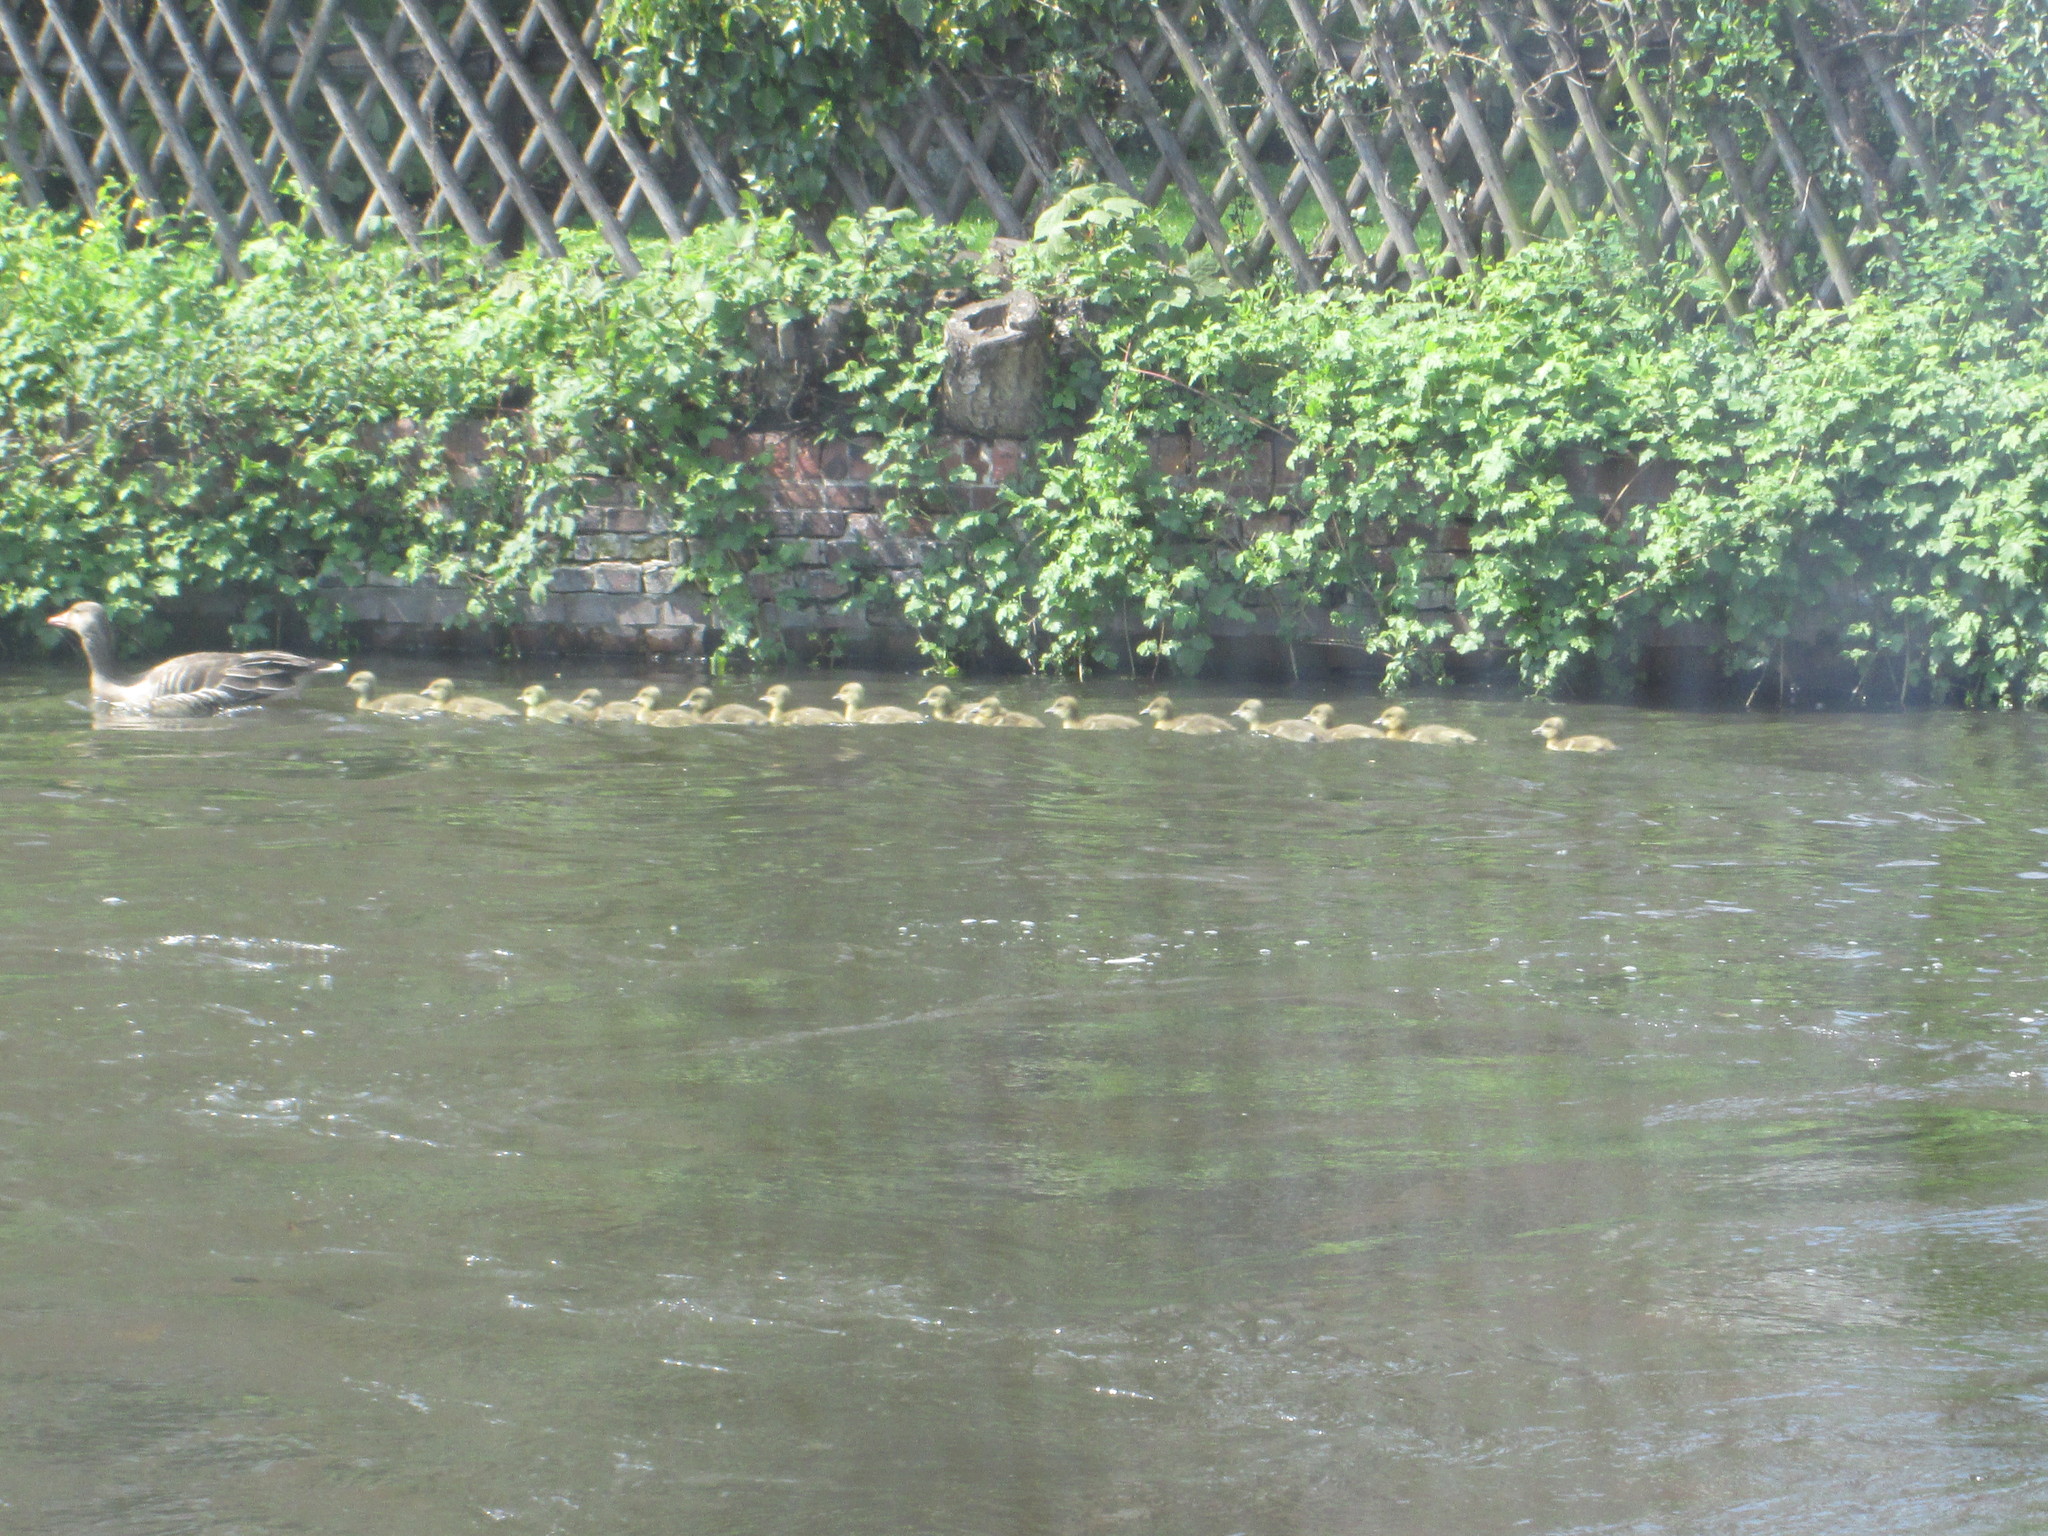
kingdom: Animalia
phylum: Chordata
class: Aves
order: Anseriformes
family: Anatidae
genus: Anser
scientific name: Anser anser
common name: Greylag goose
